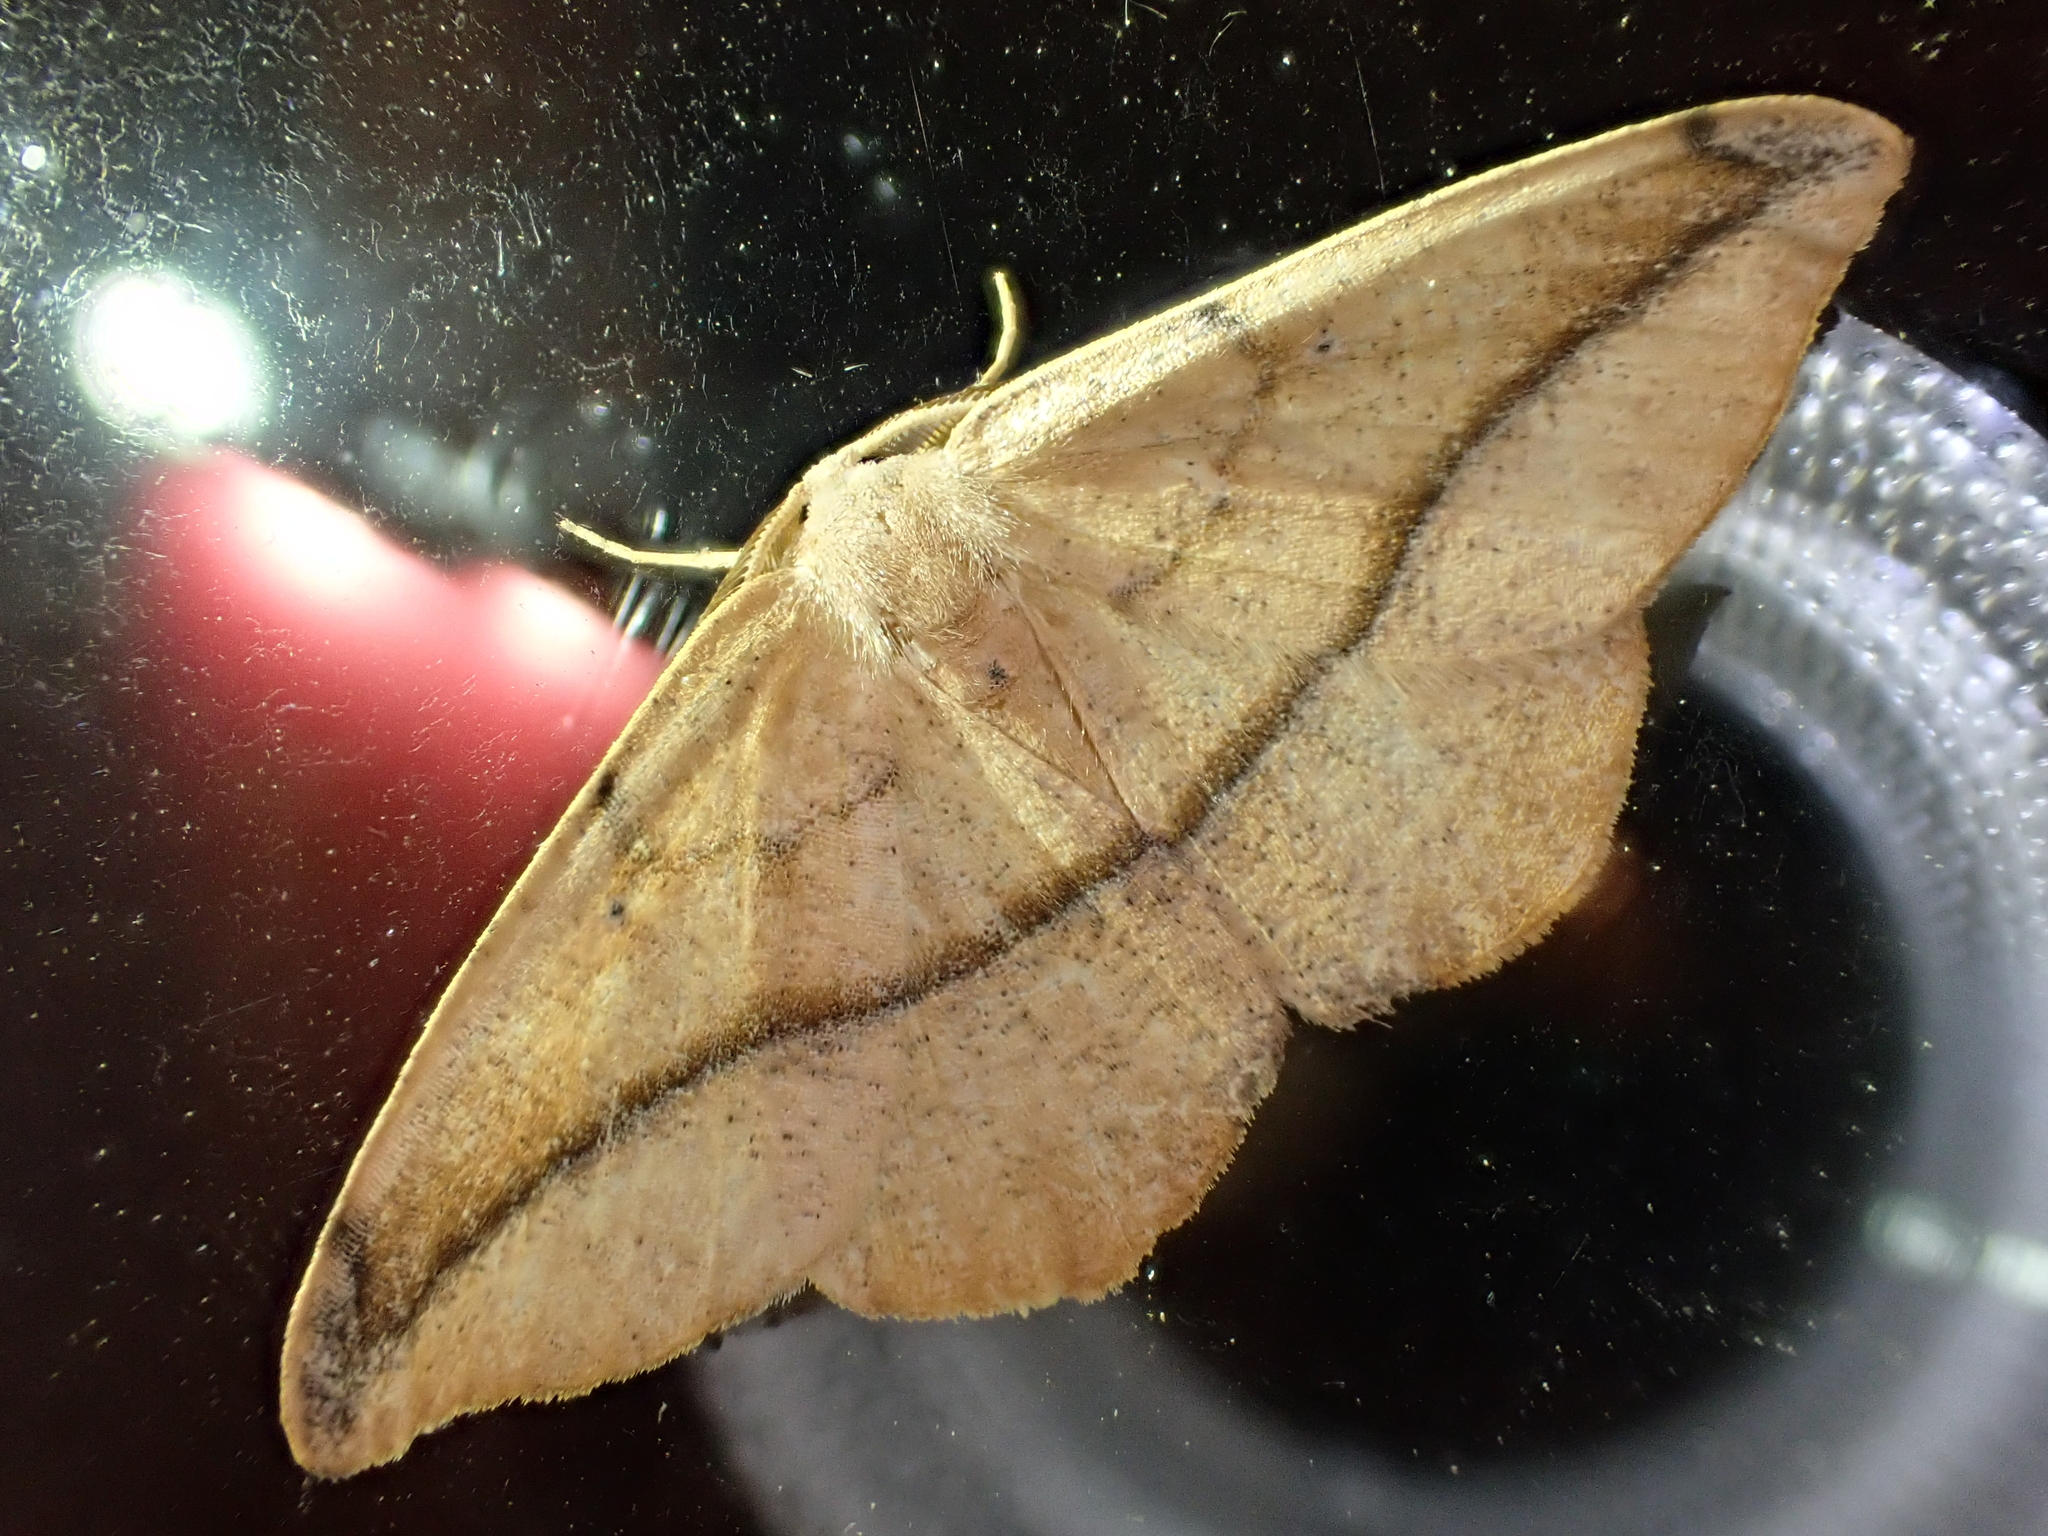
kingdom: Animalia
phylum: Arthropoda
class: Insecta
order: Lepidoptera
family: Geometridae
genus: Patalene
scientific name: Patalene olyzonaria
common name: Juniper geometer moth
